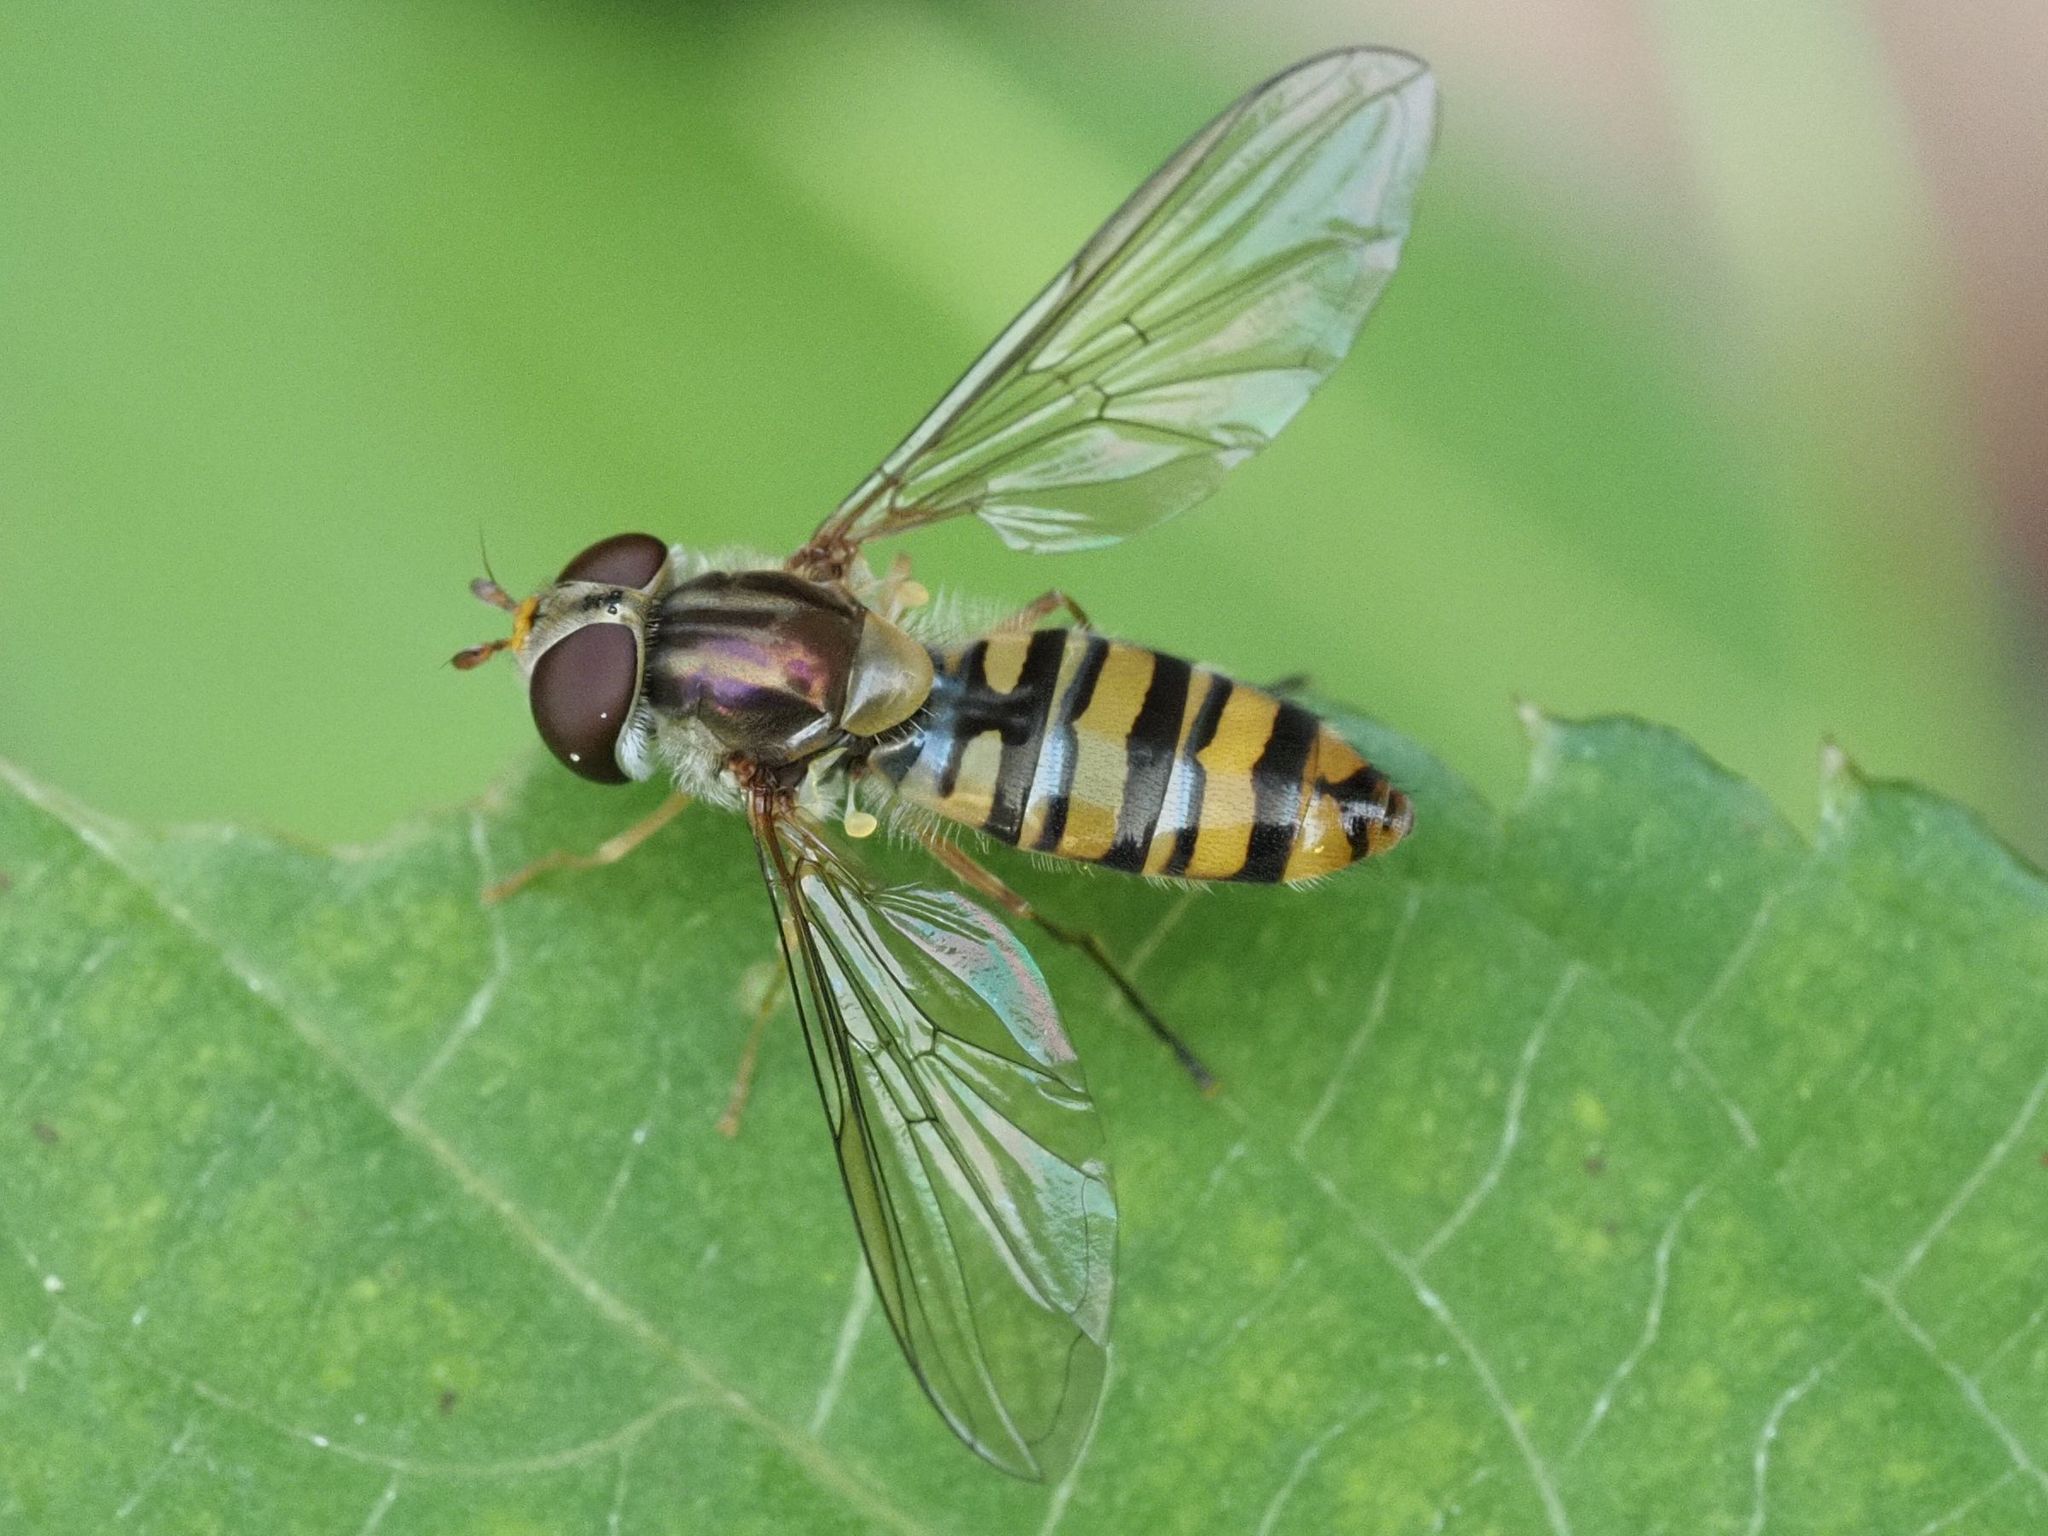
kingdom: Animalia
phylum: Arthropoda
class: Insecta
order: Diptera
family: Syrphidae
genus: Episyrphus
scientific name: Episyrphus balteatus
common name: Marmalade hoverfly
